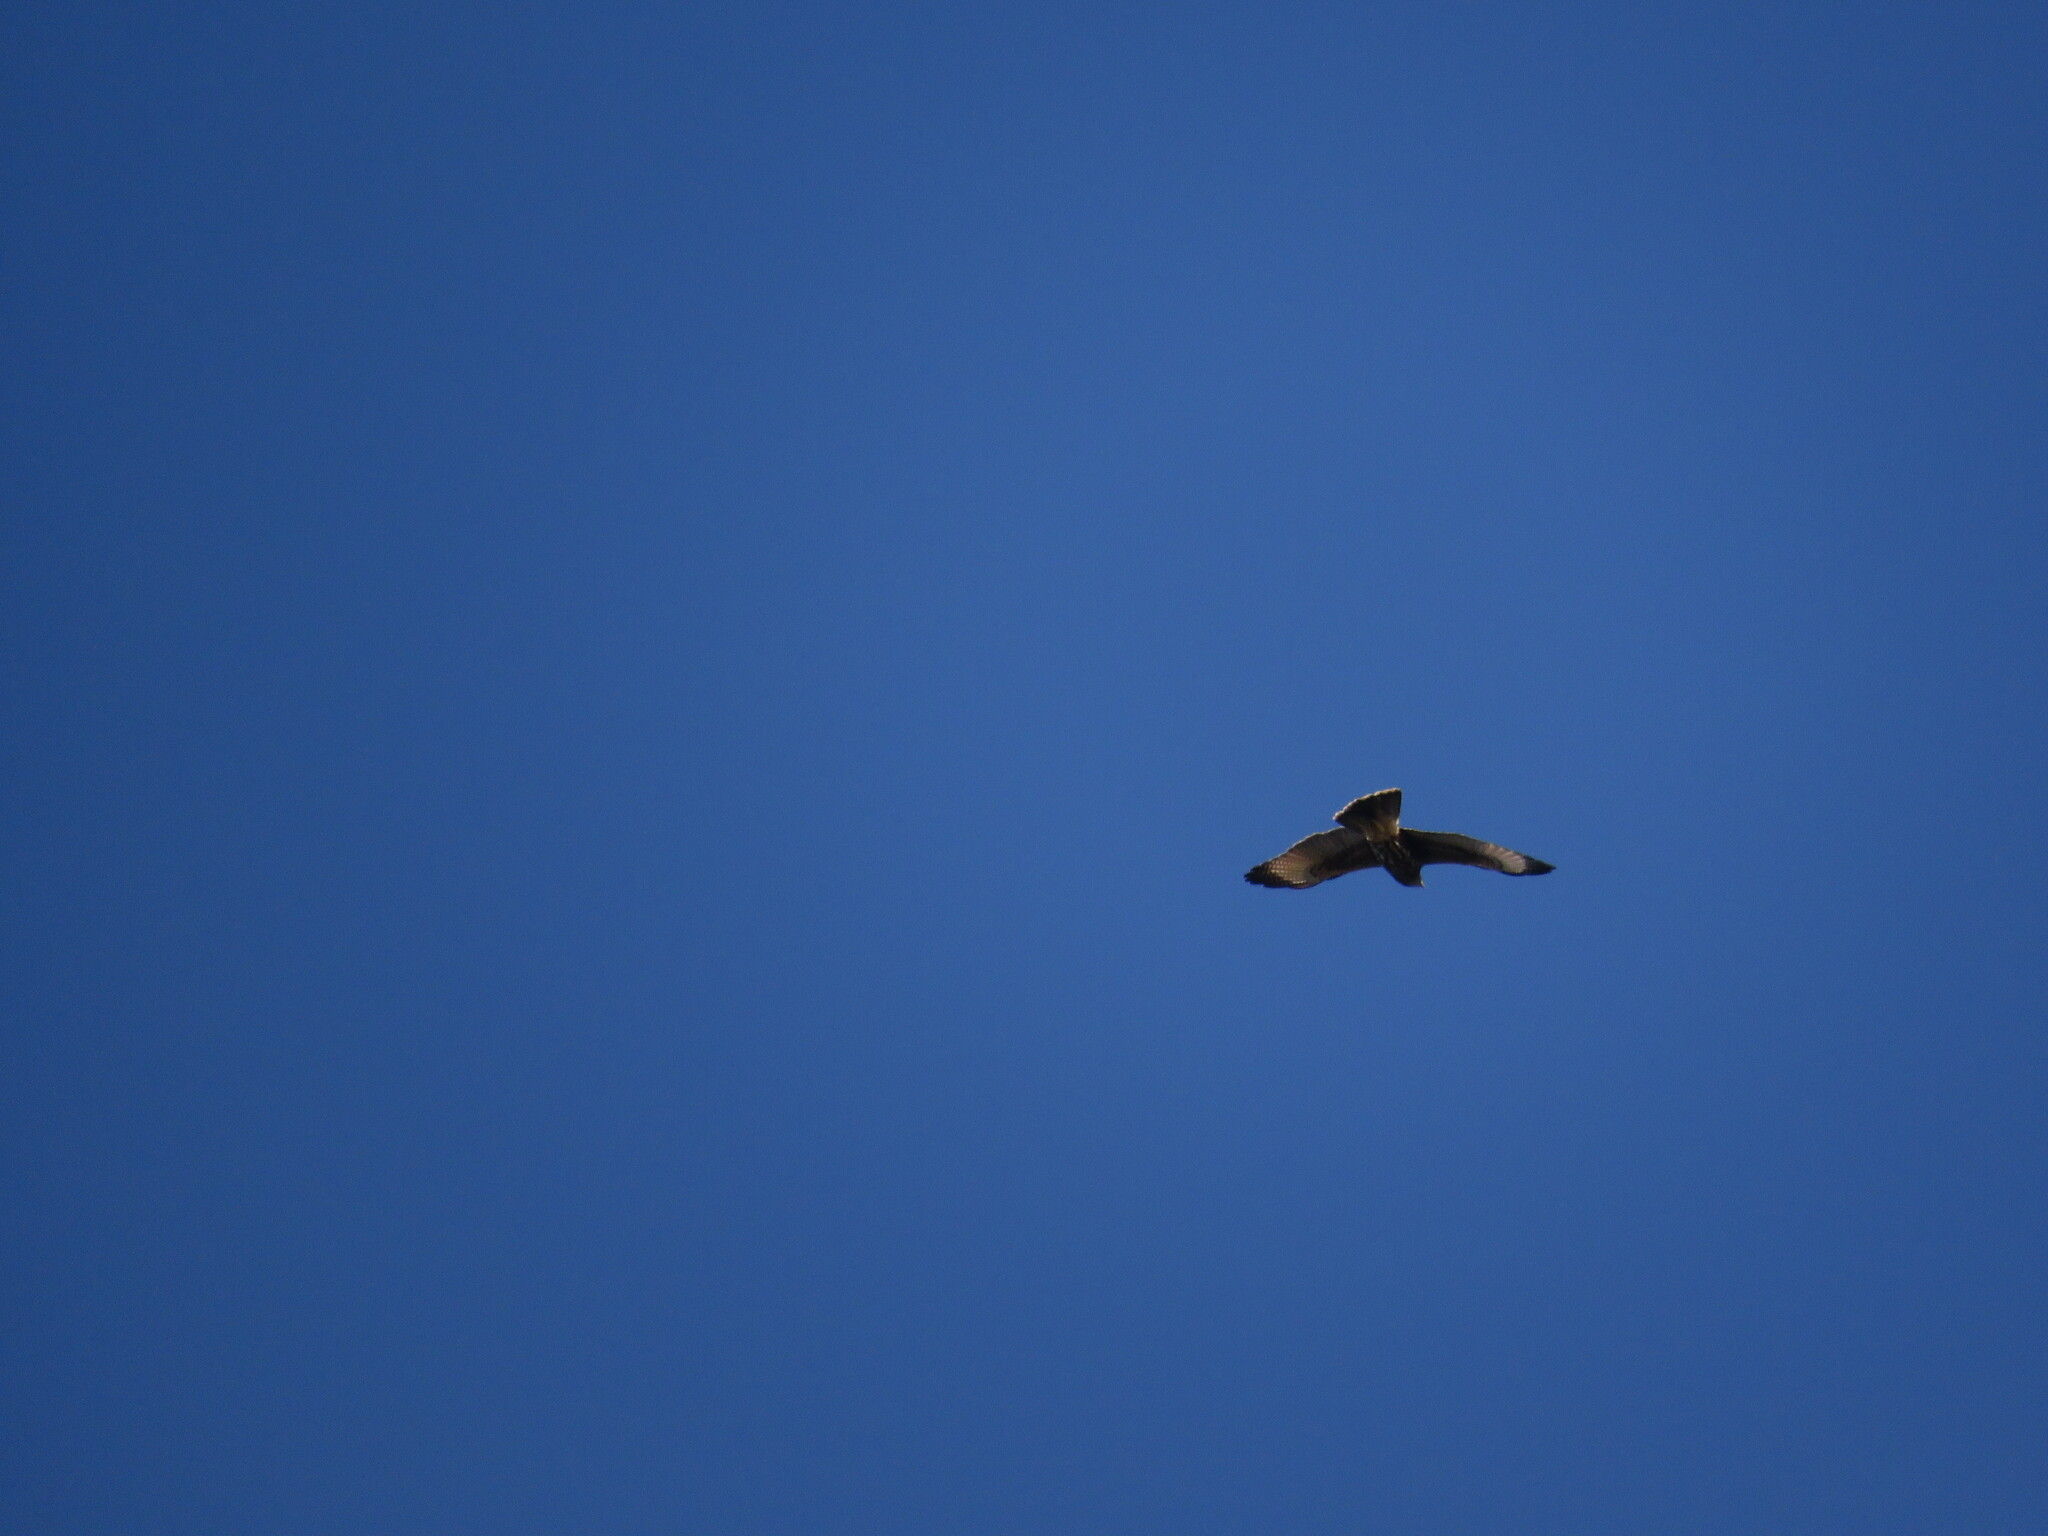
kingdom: Animalia
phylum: Chordata
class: Aves
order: Accipitriformes
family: Accipitridae
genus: Parabuteo
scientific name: Parabuteo unicinctus
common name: Harris's hawk
